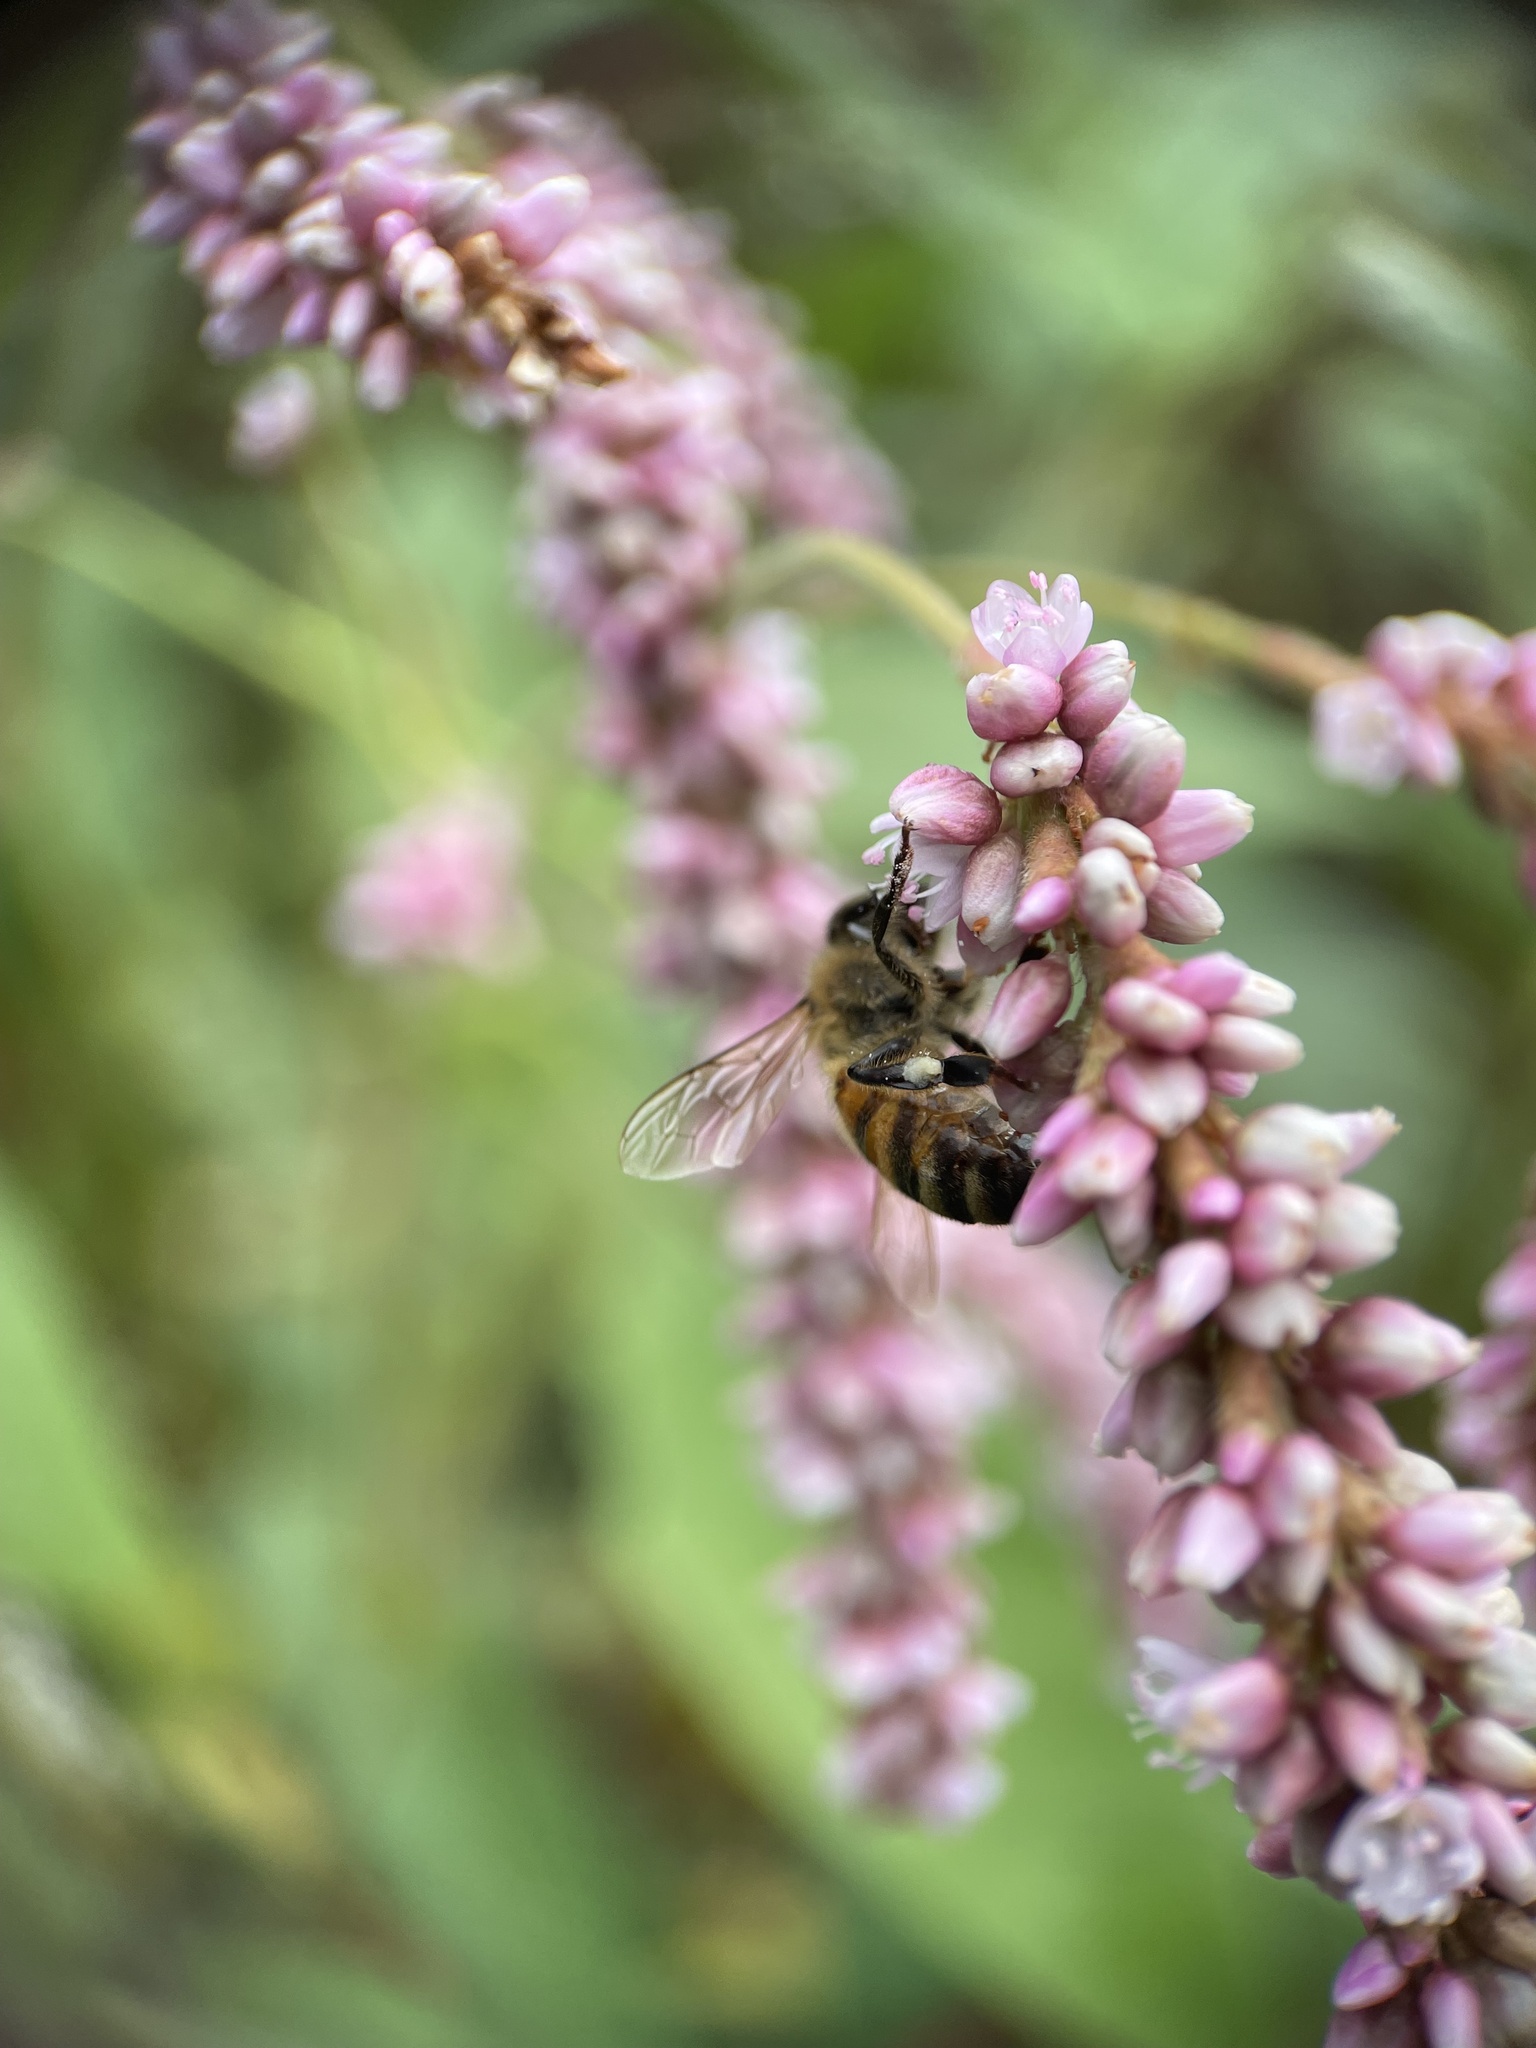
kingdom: Animalia
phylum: Arthropoda
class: Insecta
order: Hymenoptera
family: Apidae
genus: Apis
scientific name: Apis mellifera
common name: Honey bee
